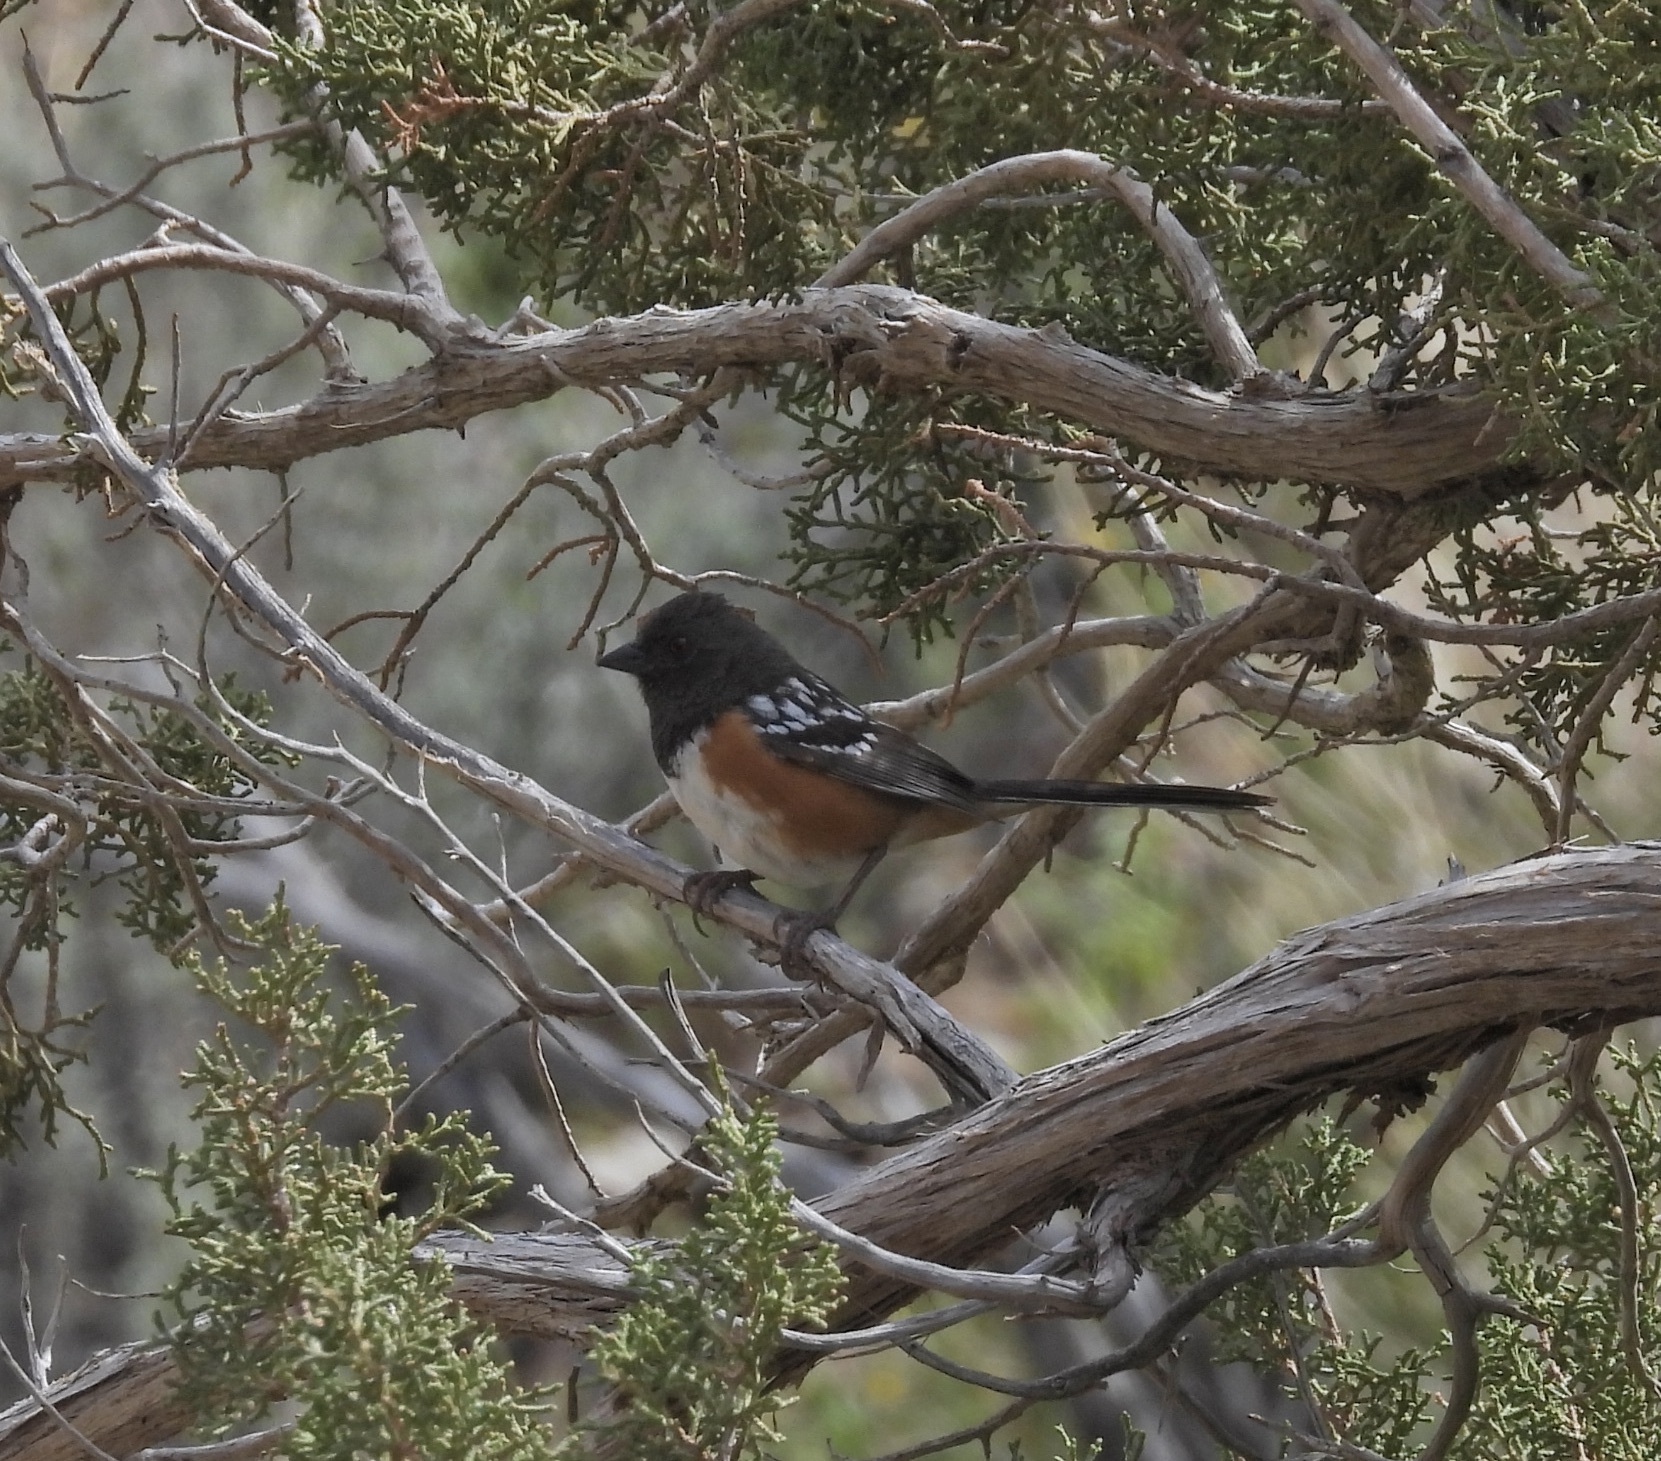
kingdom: Animalia
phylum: Chordata
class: Aves
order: Passeriformes
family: Passerellidae
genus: Pipilo
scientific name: Pipilo maculatus
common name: Spotted towhee
